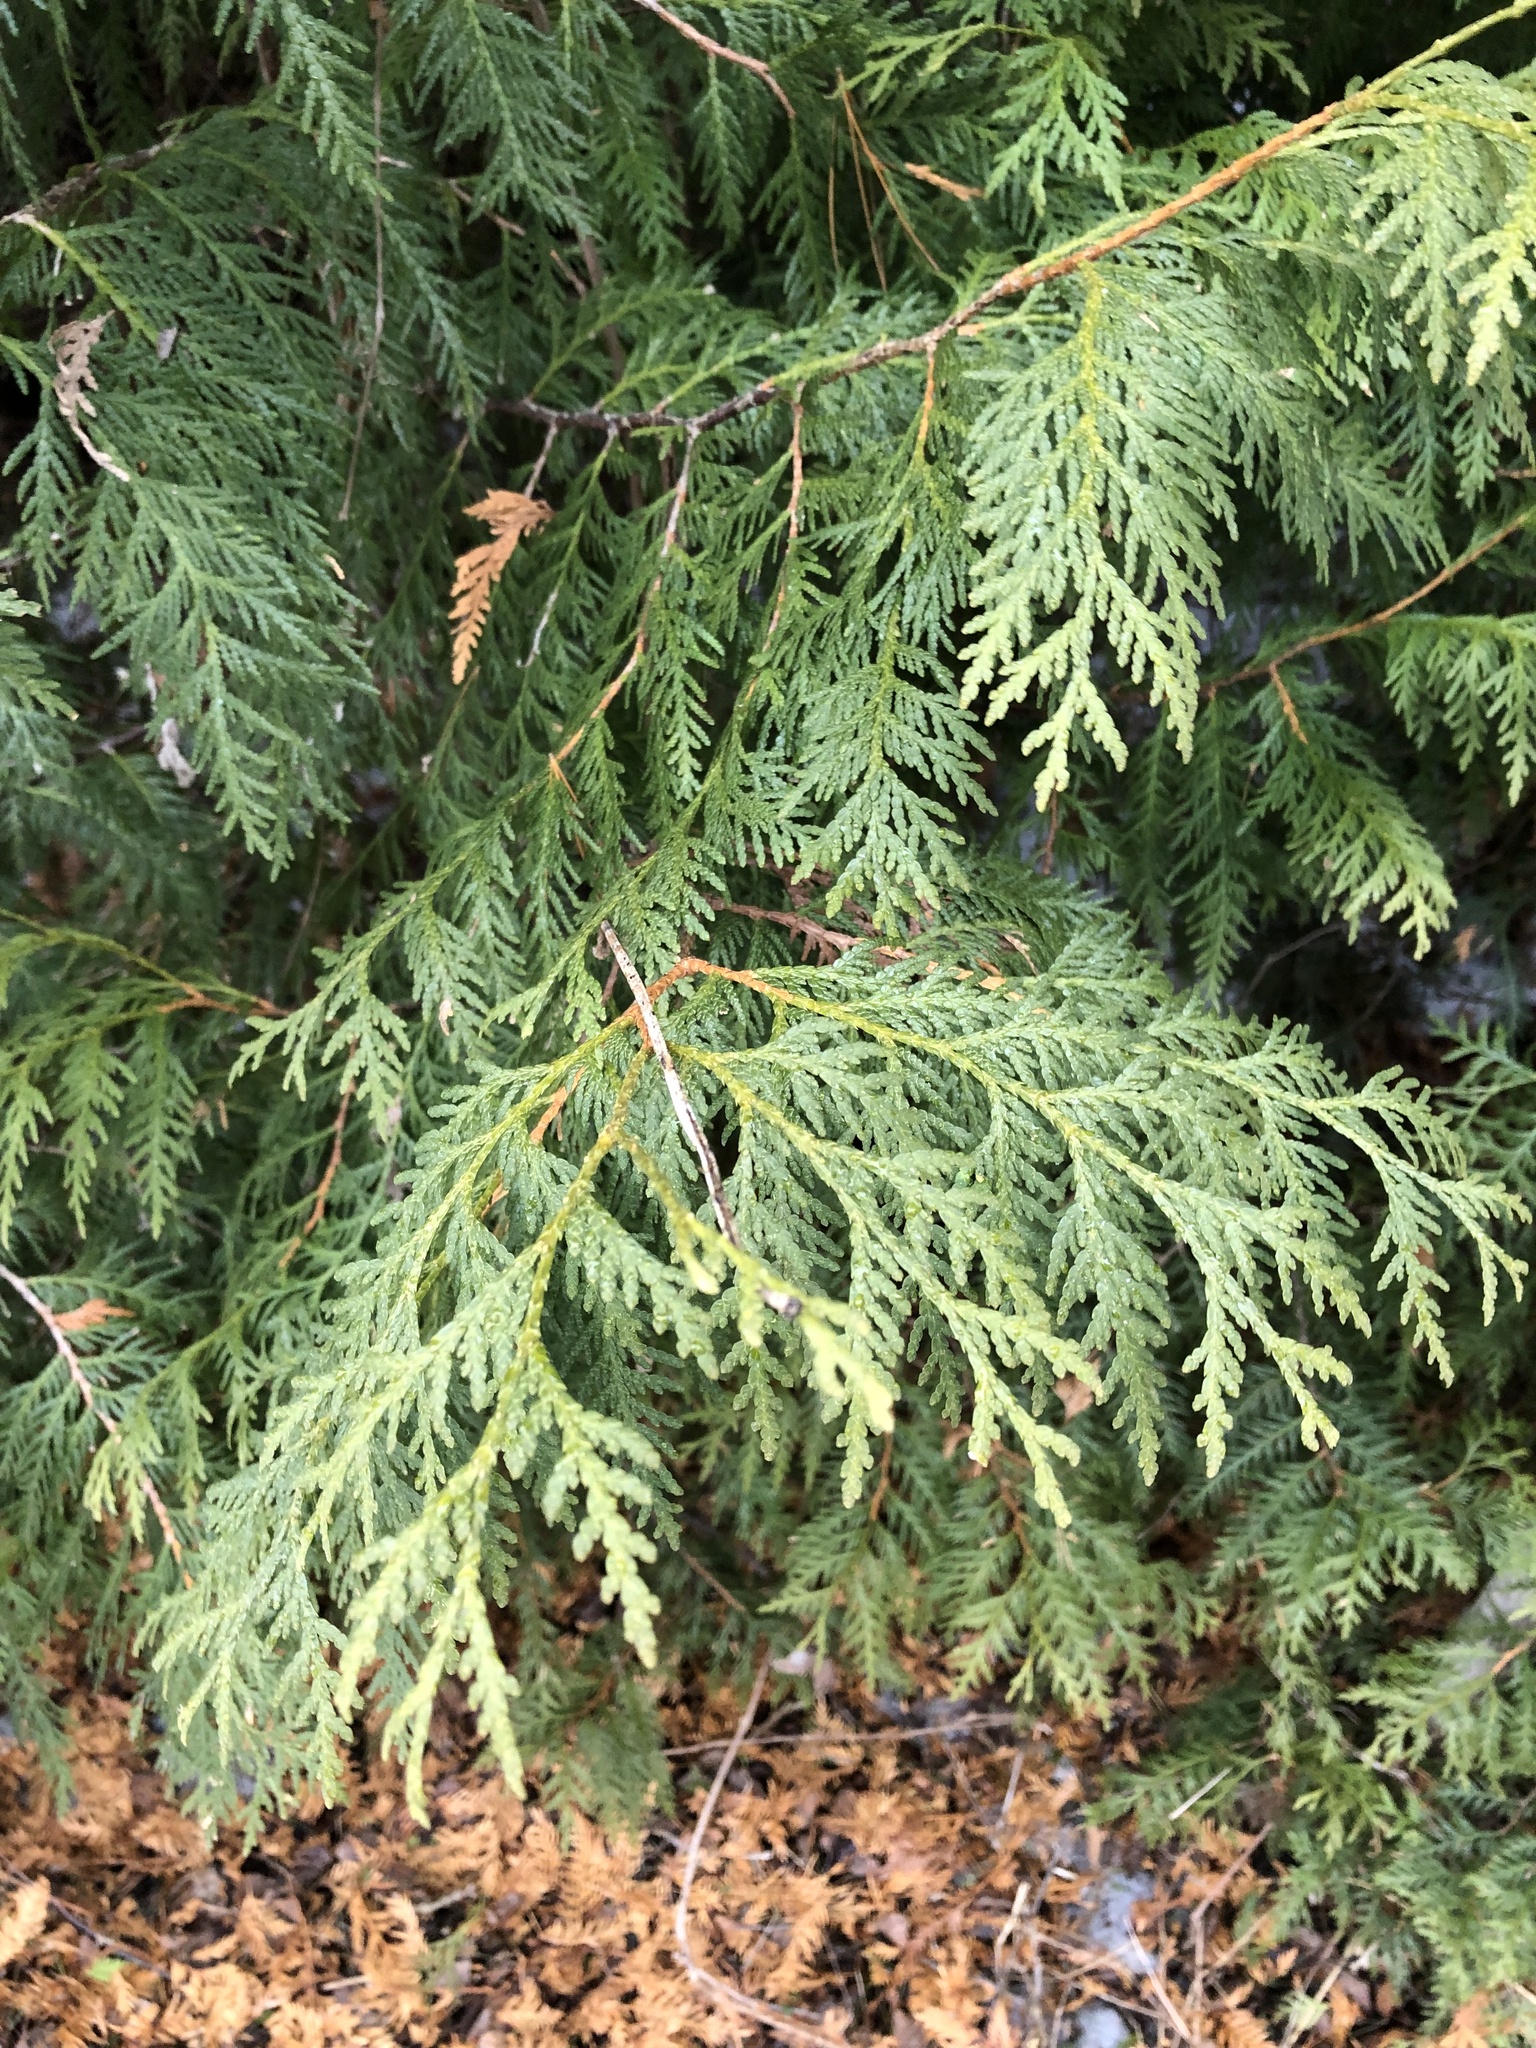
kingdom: Plantae
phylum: Tracheophyta
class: Pinopsida
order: Pinales
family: Cupressaceae
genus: Thuja
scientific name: Thuja occidentalis
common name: Northern white-cedar
